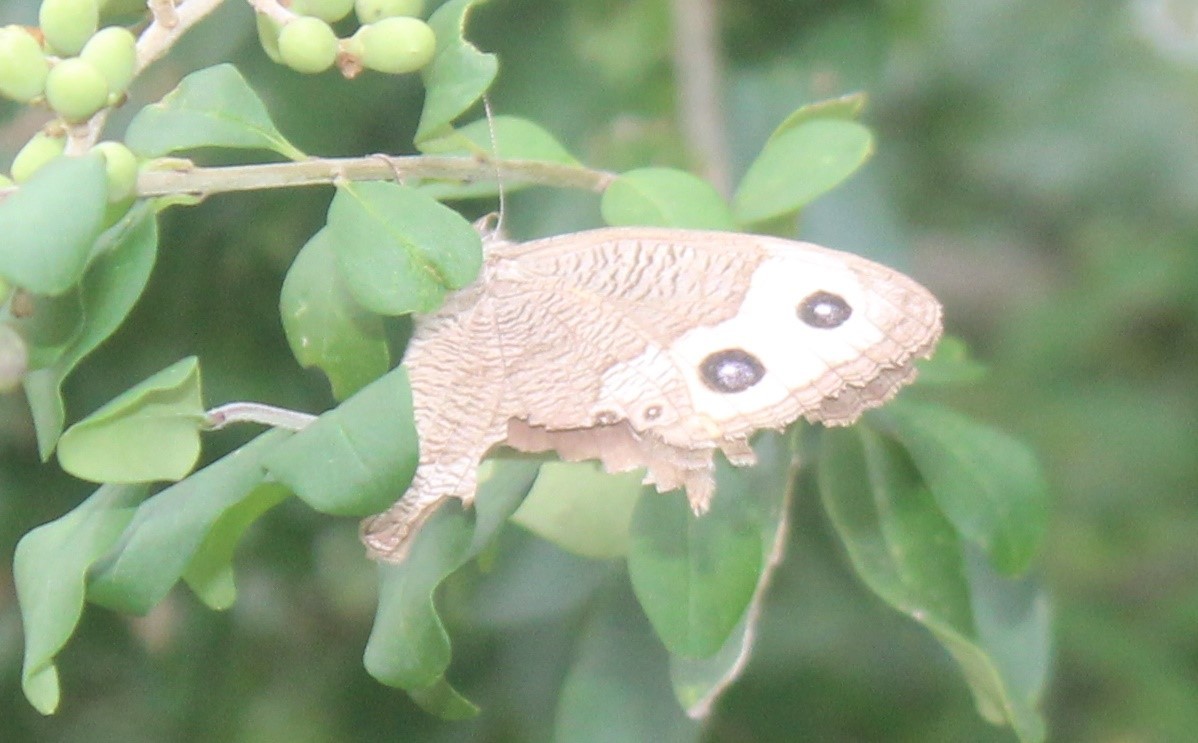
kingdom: Animalia
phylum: Arthropoda
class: Insecta
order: Lepidoptera
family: Nymphalidae
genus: Cercyonis
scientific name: Cercyonis pegala
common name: Common wood-nymph
